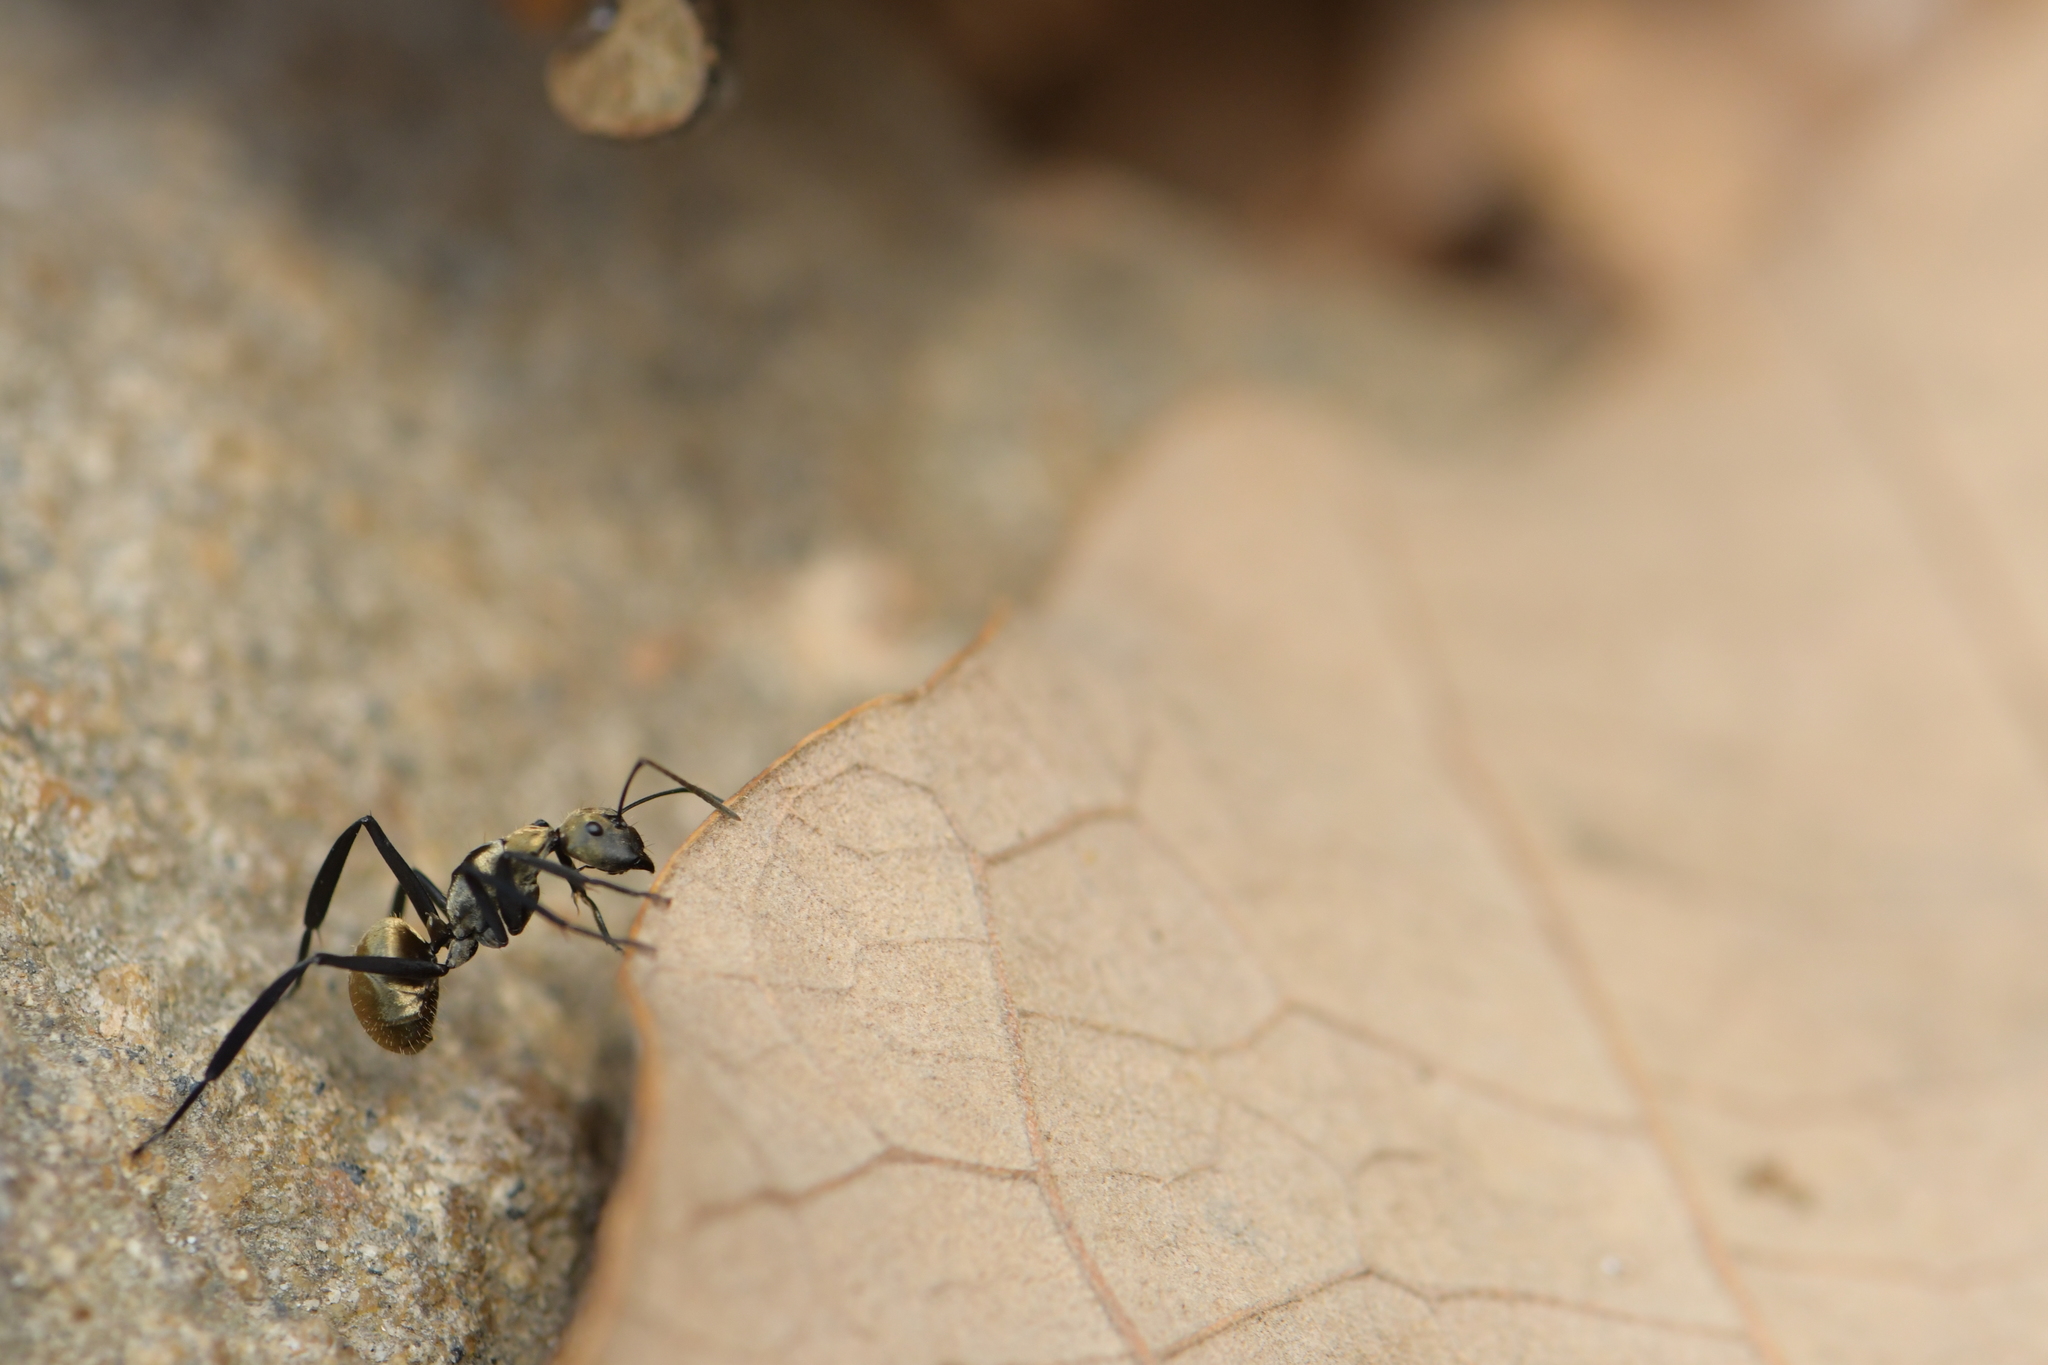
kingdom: Animalia
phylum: Arthropoda
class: Insecta
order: Hymenoptera
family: Formicidae
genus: Camponotus
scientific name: Camponotus sericeiventris
